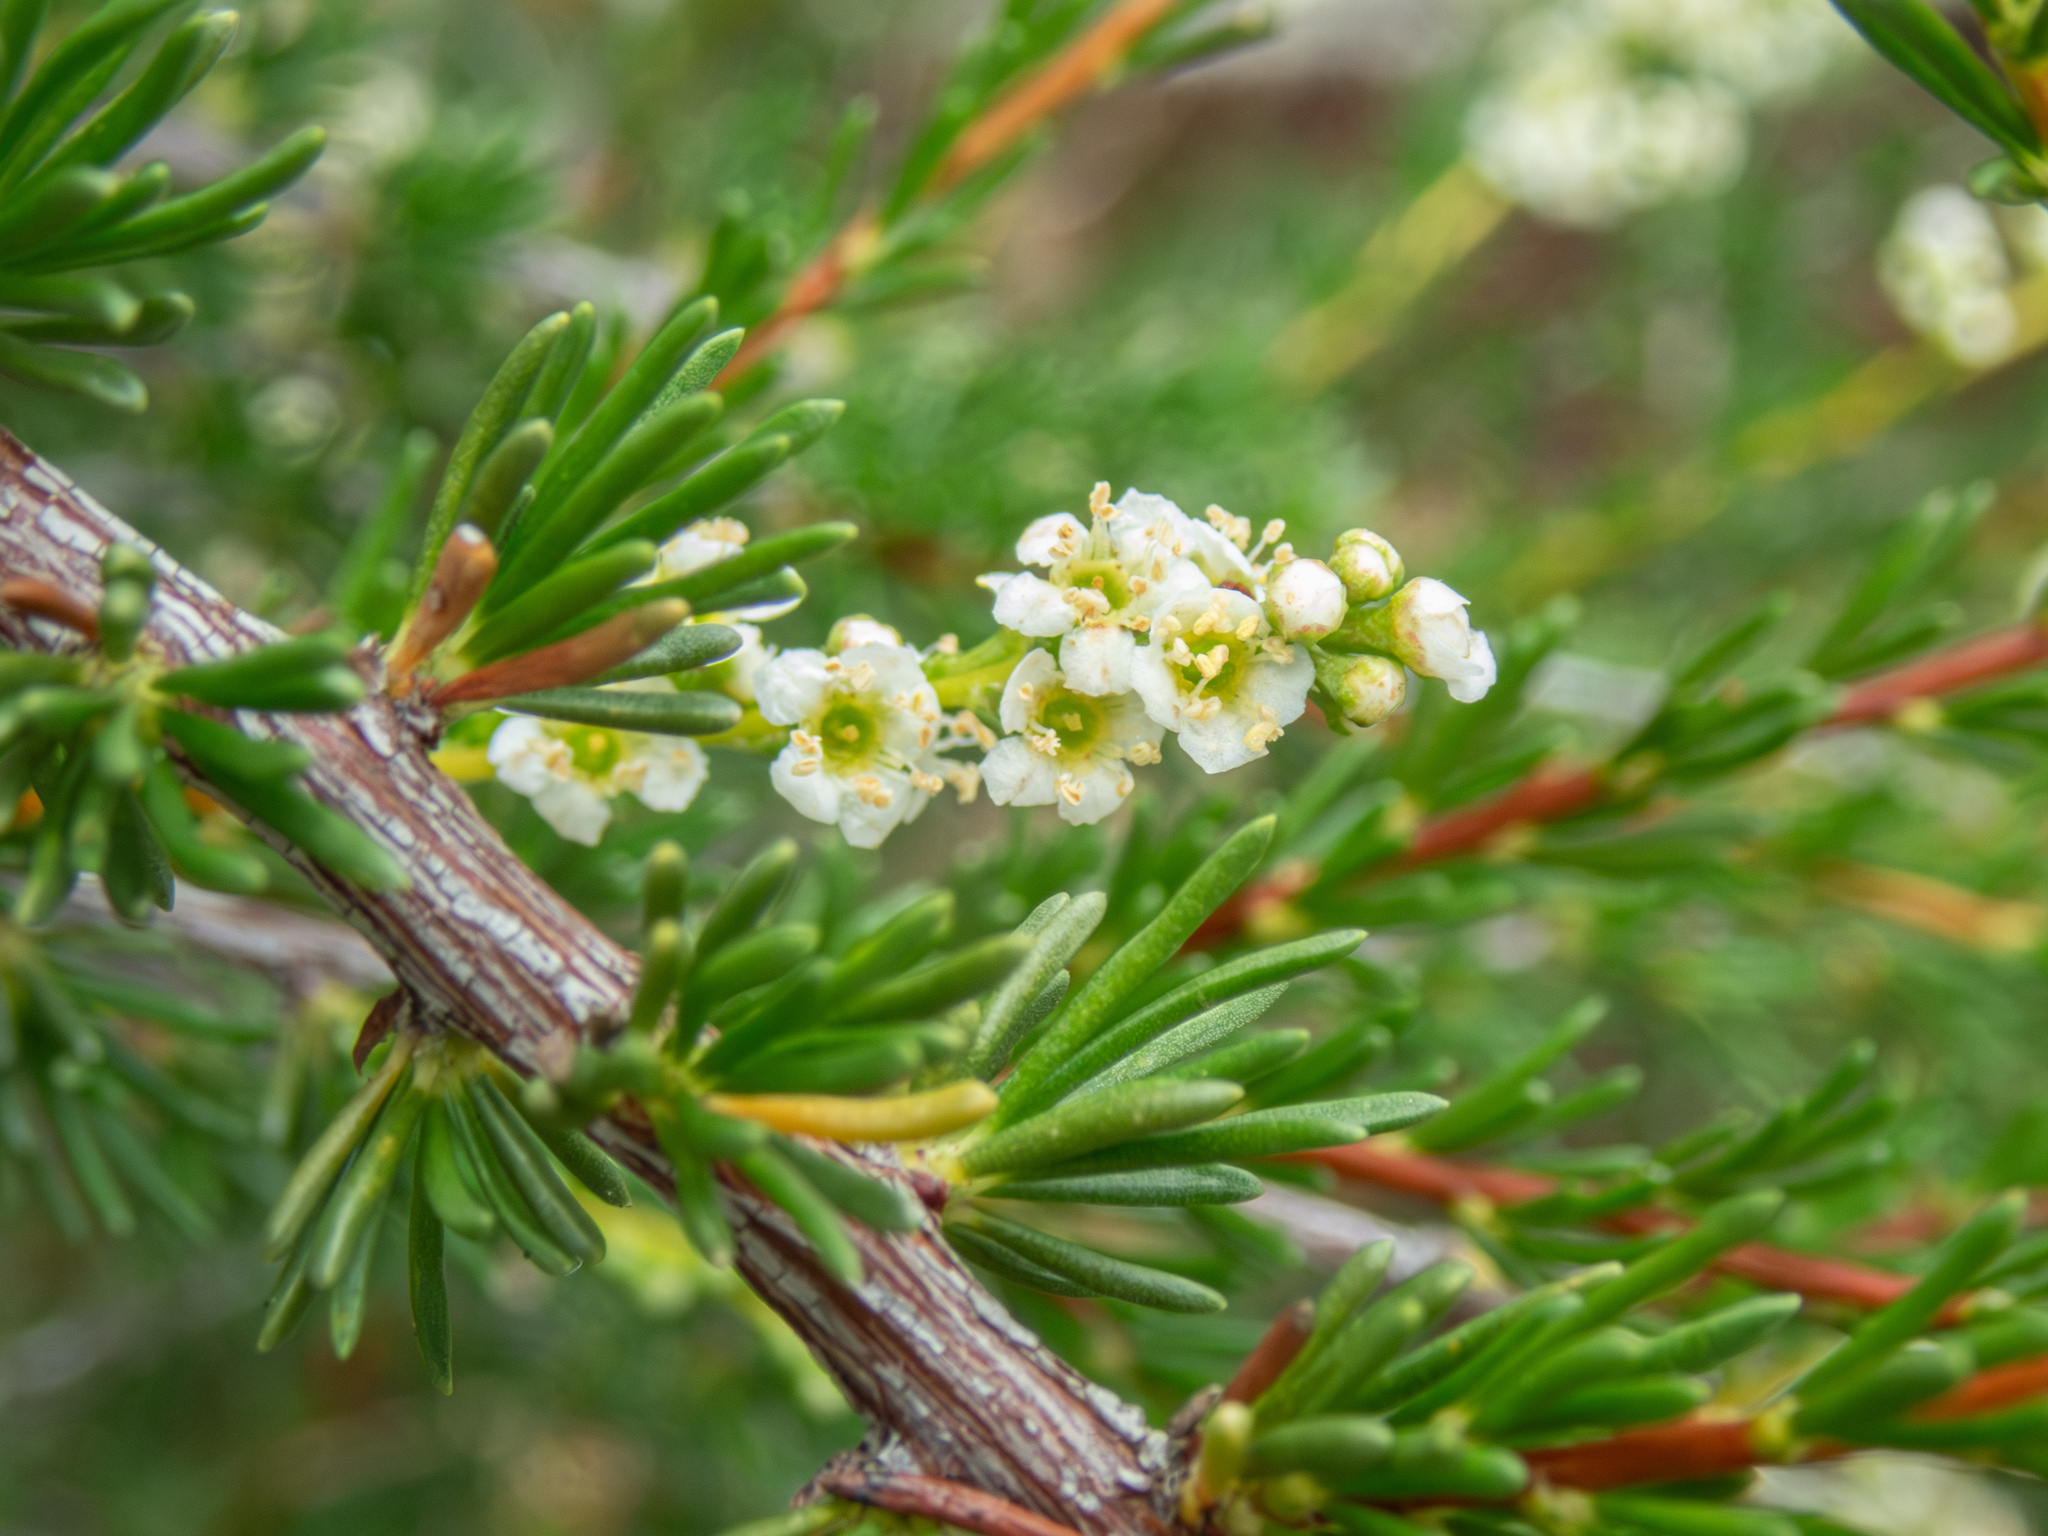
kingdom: Plantae
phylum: Tracheophyta
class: Magnoliopsida
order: Rosales
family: Rosaceae
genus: Adenostoma
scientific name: Adenostoma fasciculatum
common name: Chamise
